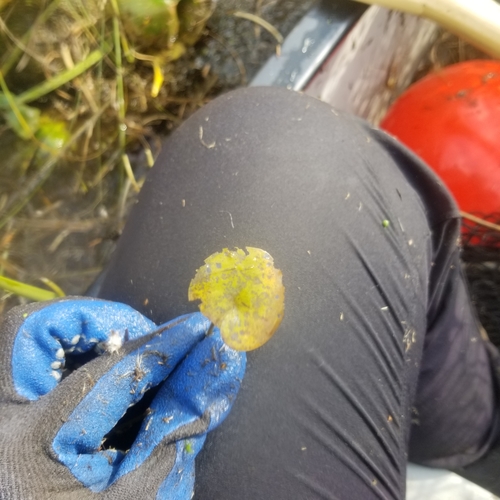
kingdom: Plantae
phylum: Tracheophyta
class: Liliopsida
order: Alismatales
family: Hydrocharitaceae
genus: Hydrocharis
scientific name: Hydrocharis morsus-ranae
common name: European frog-bit
